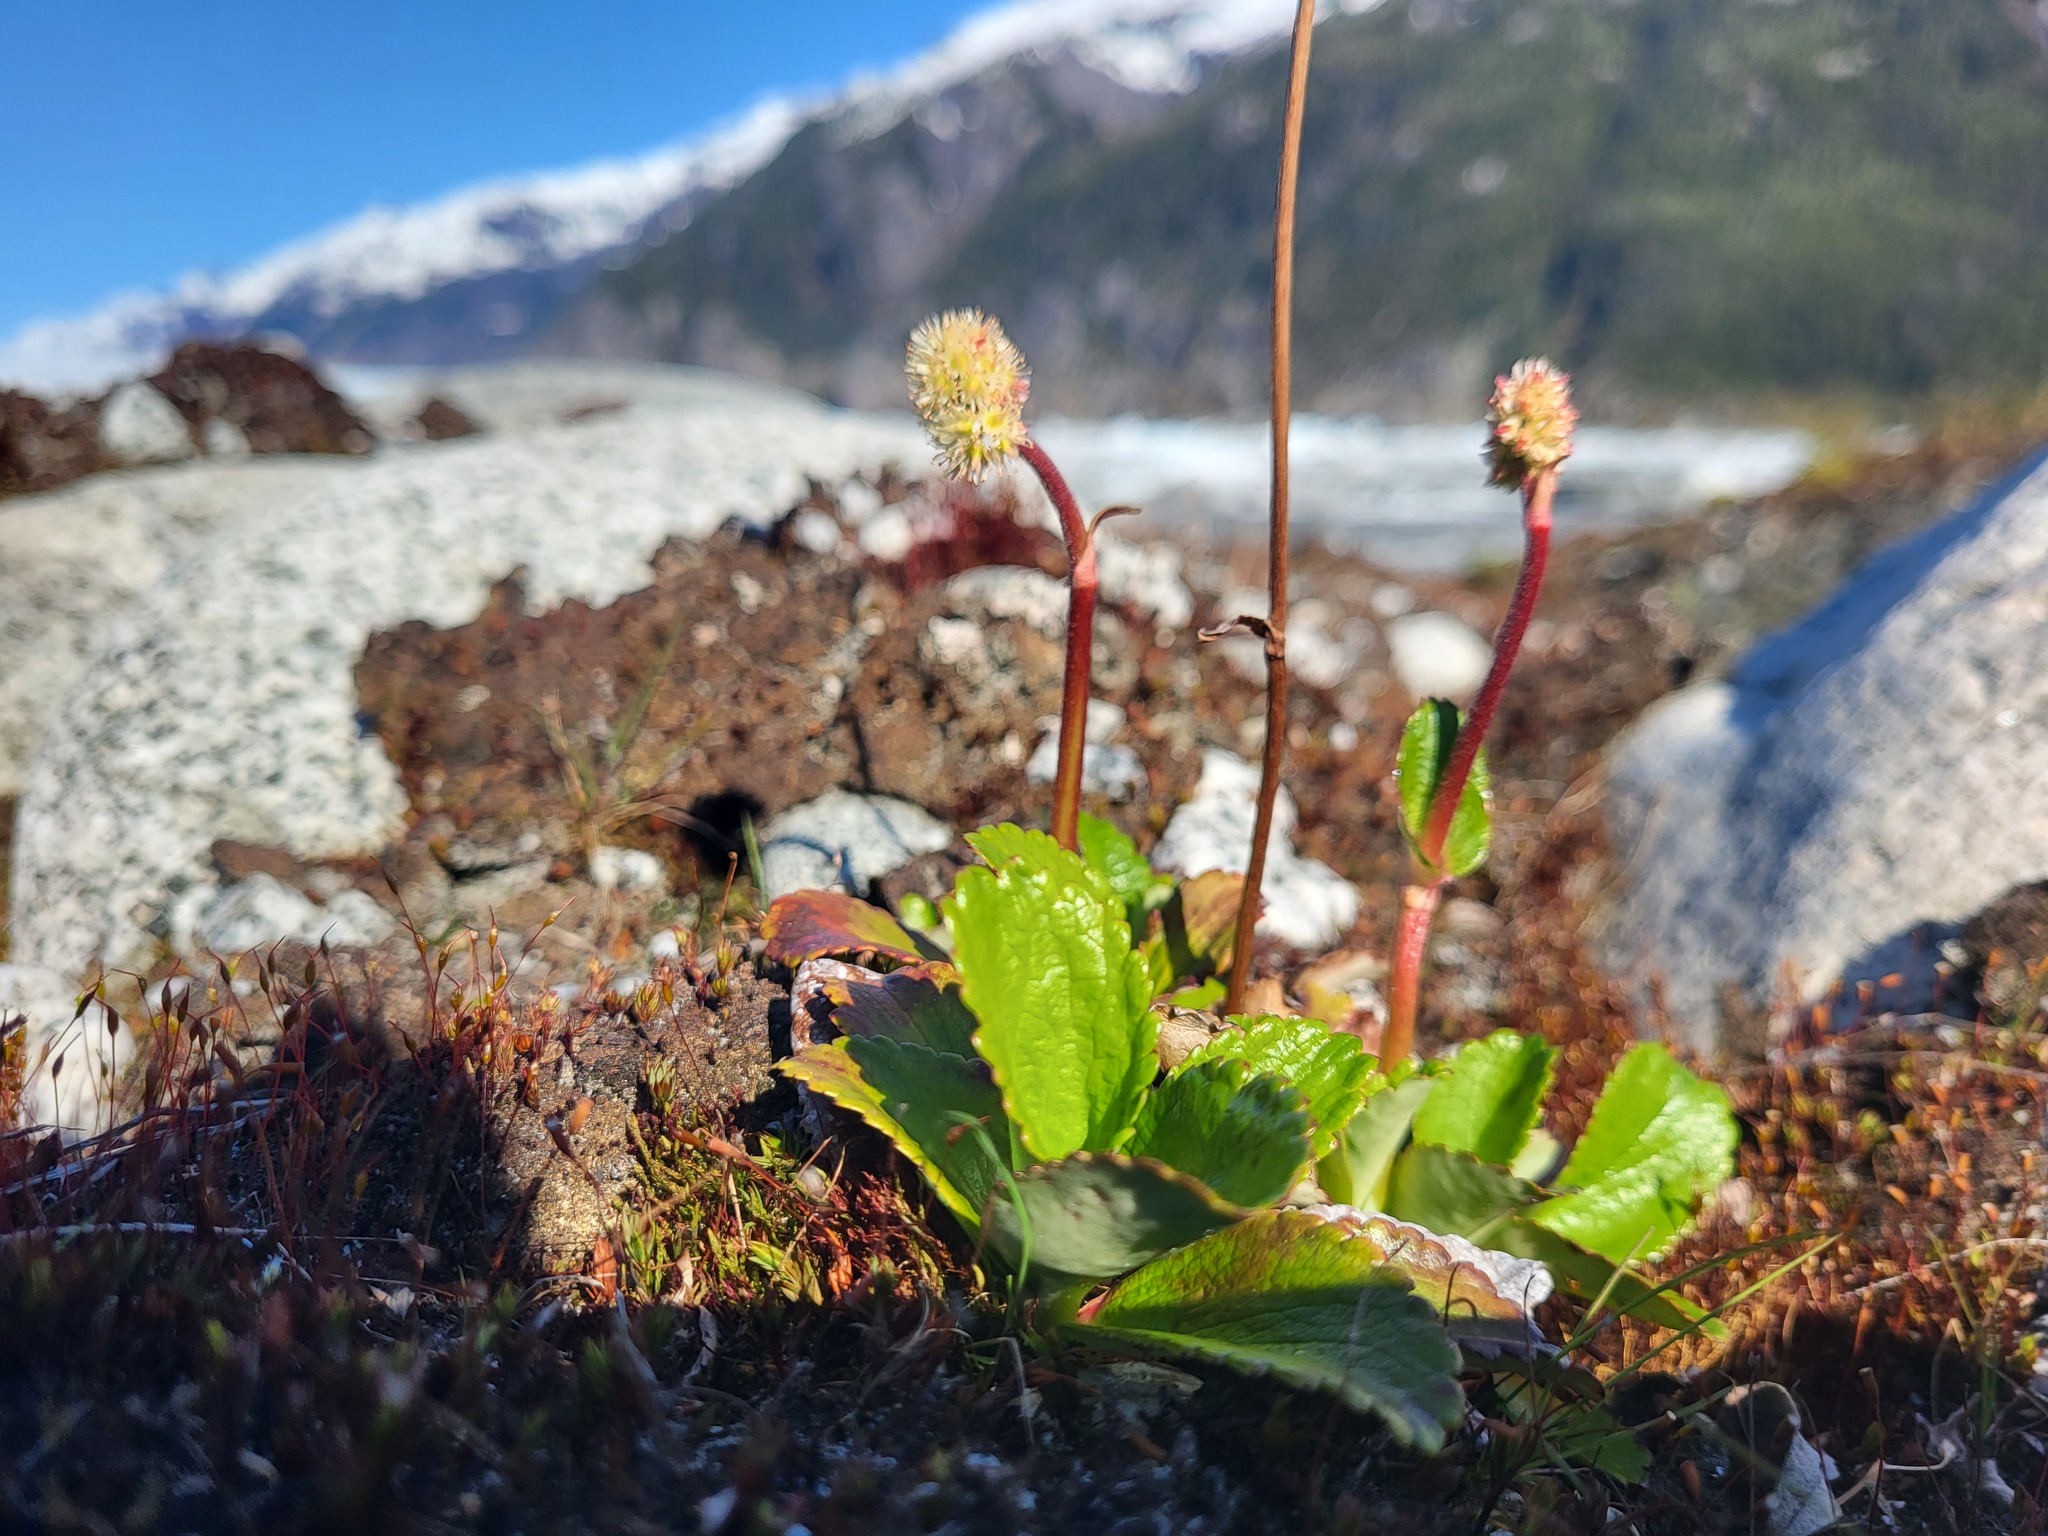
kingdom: Plantae
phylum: Tracheophyta
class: Magnoliopsida
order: Saxifragales
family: Saxifragaceae
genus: Leptarrhena
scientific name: Leptarrhena pyrolifolia
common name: Leatherleaf-saxifrage
